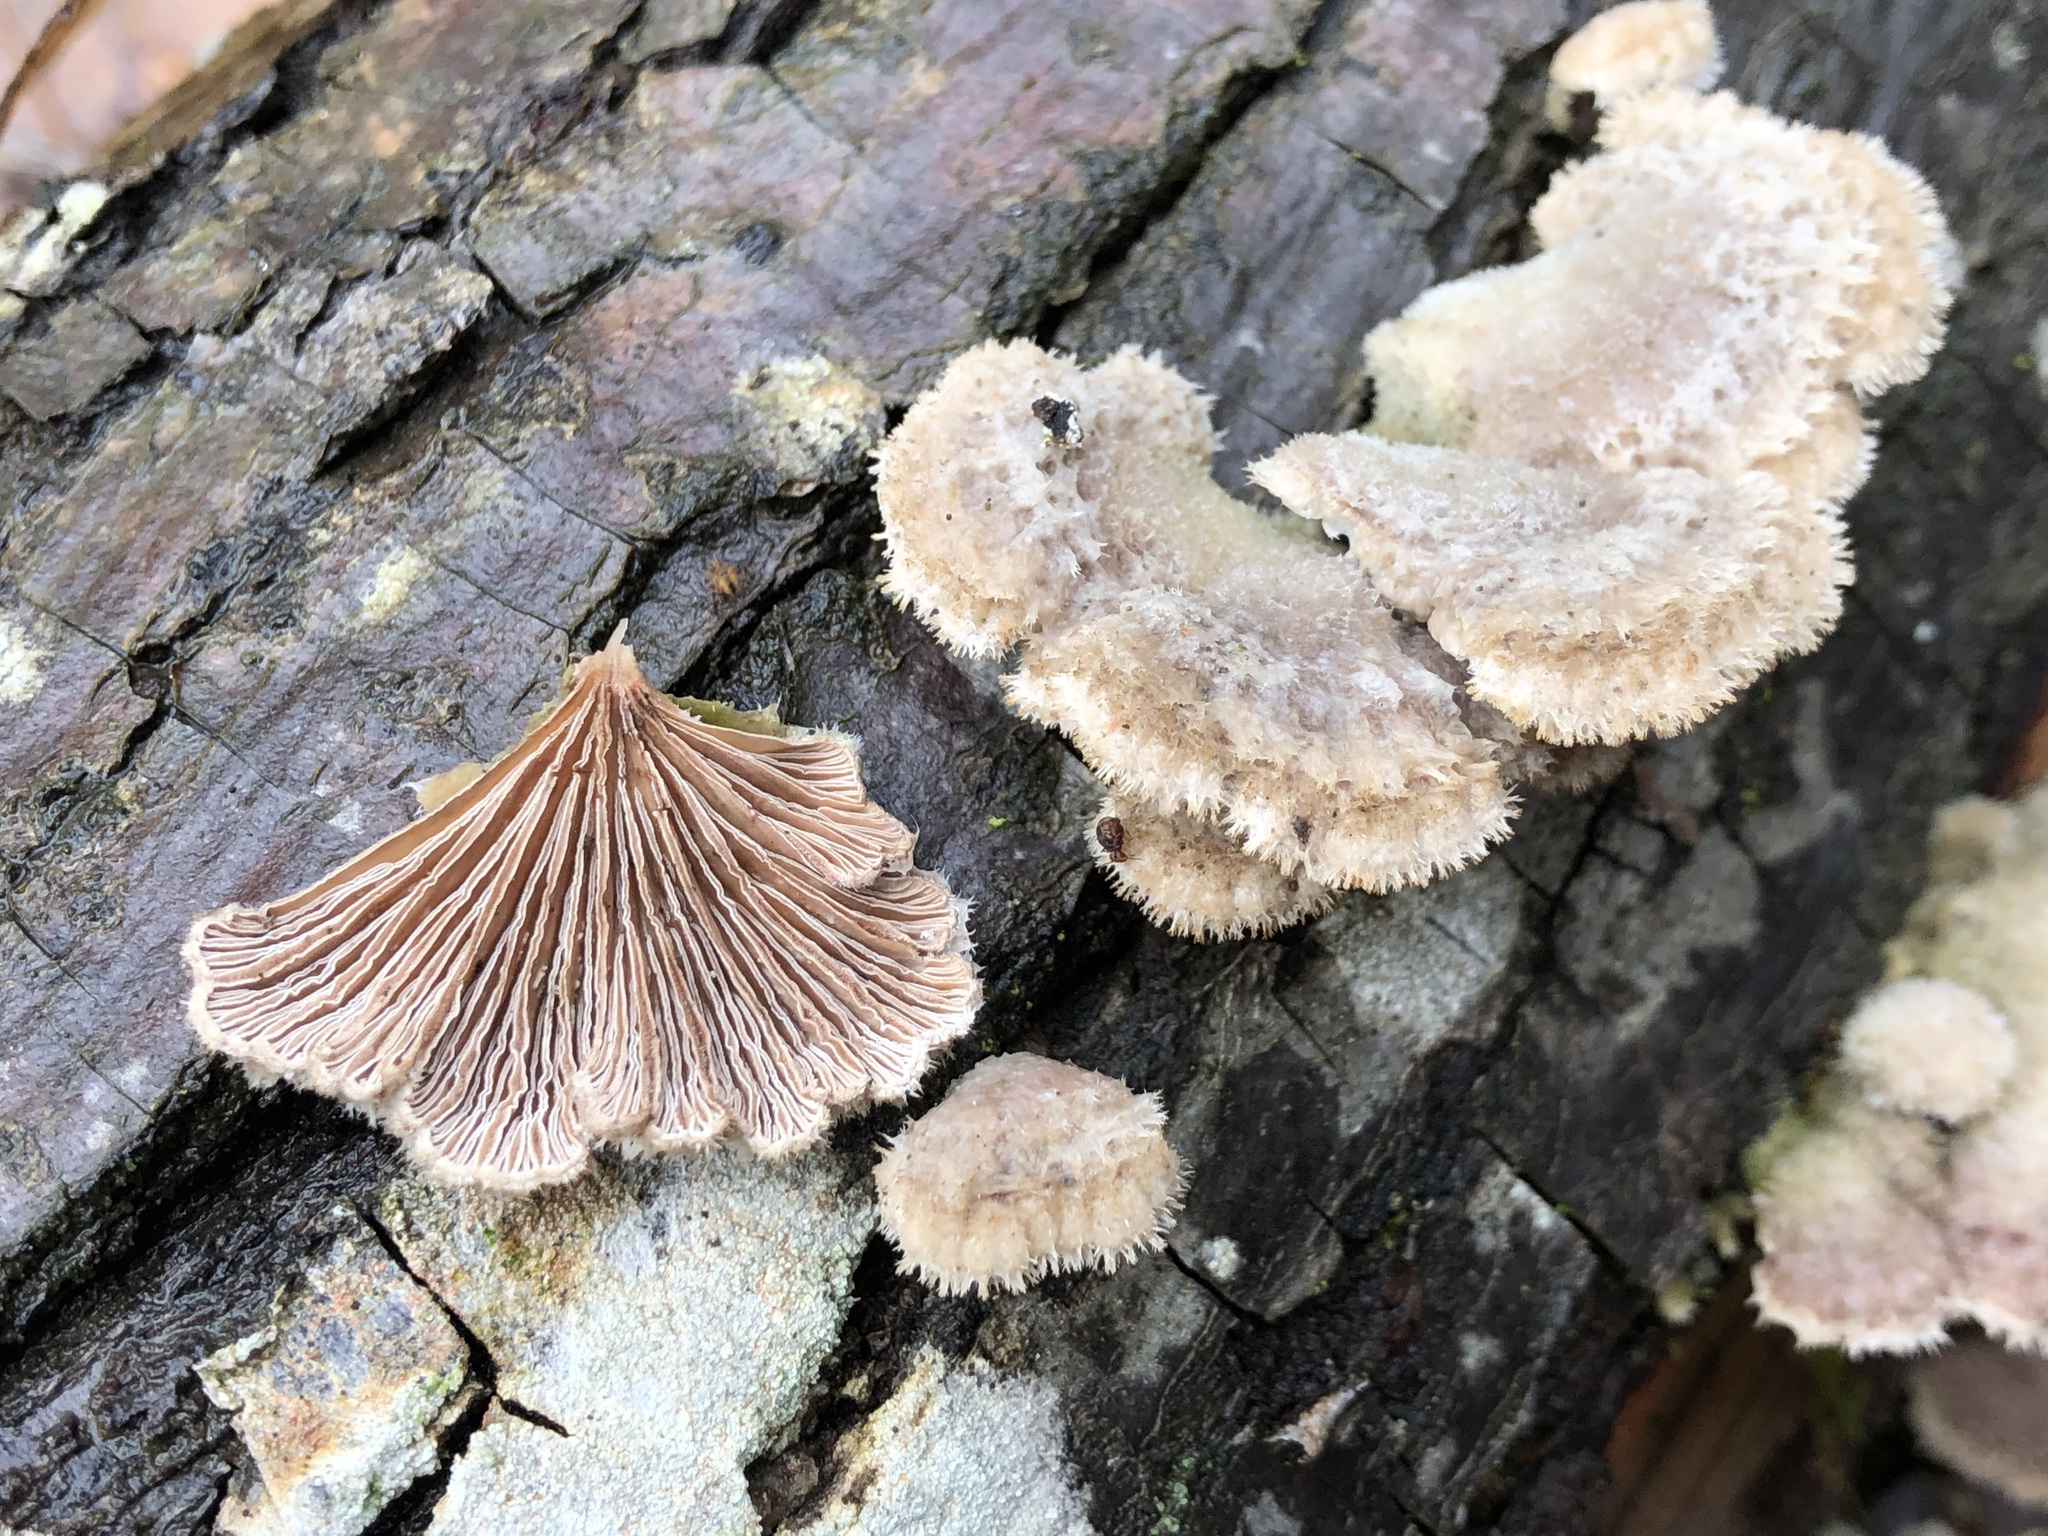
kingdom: Fungi
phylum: Basidiomycota
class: Agaricomycetes
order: Agaricales
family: Schizophyllaceae
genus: Schizophyllum
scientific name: Schizophyllum commune
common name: Common porecrust
